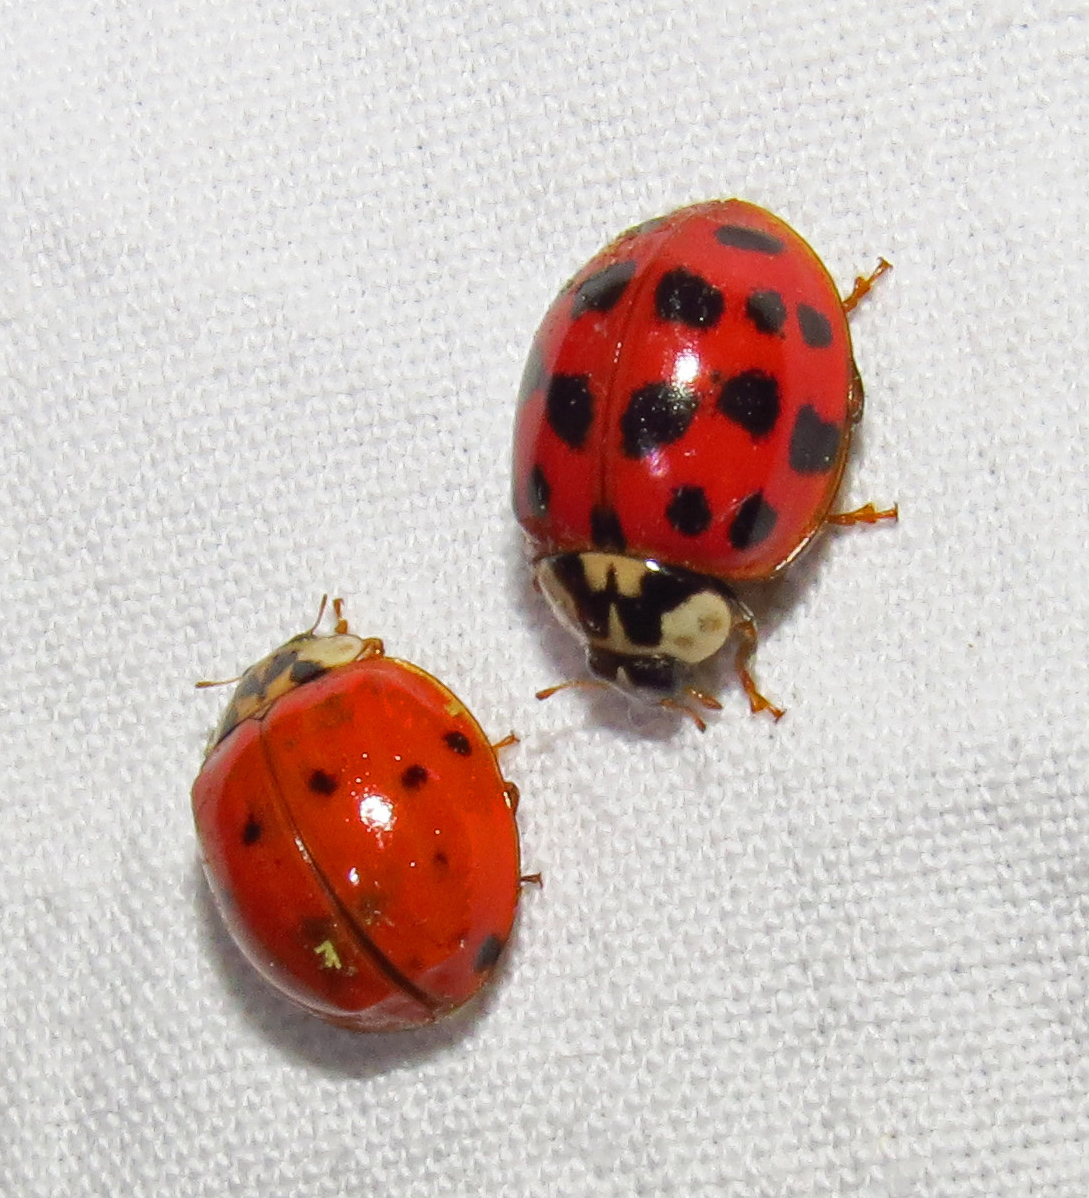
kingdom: Animalia
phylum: Arthropoda
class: Insecta
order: Coleoptera
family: Coccinellidae
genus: Harmonia
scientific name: Harmonia axyridis
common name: Harlequin ladybird
